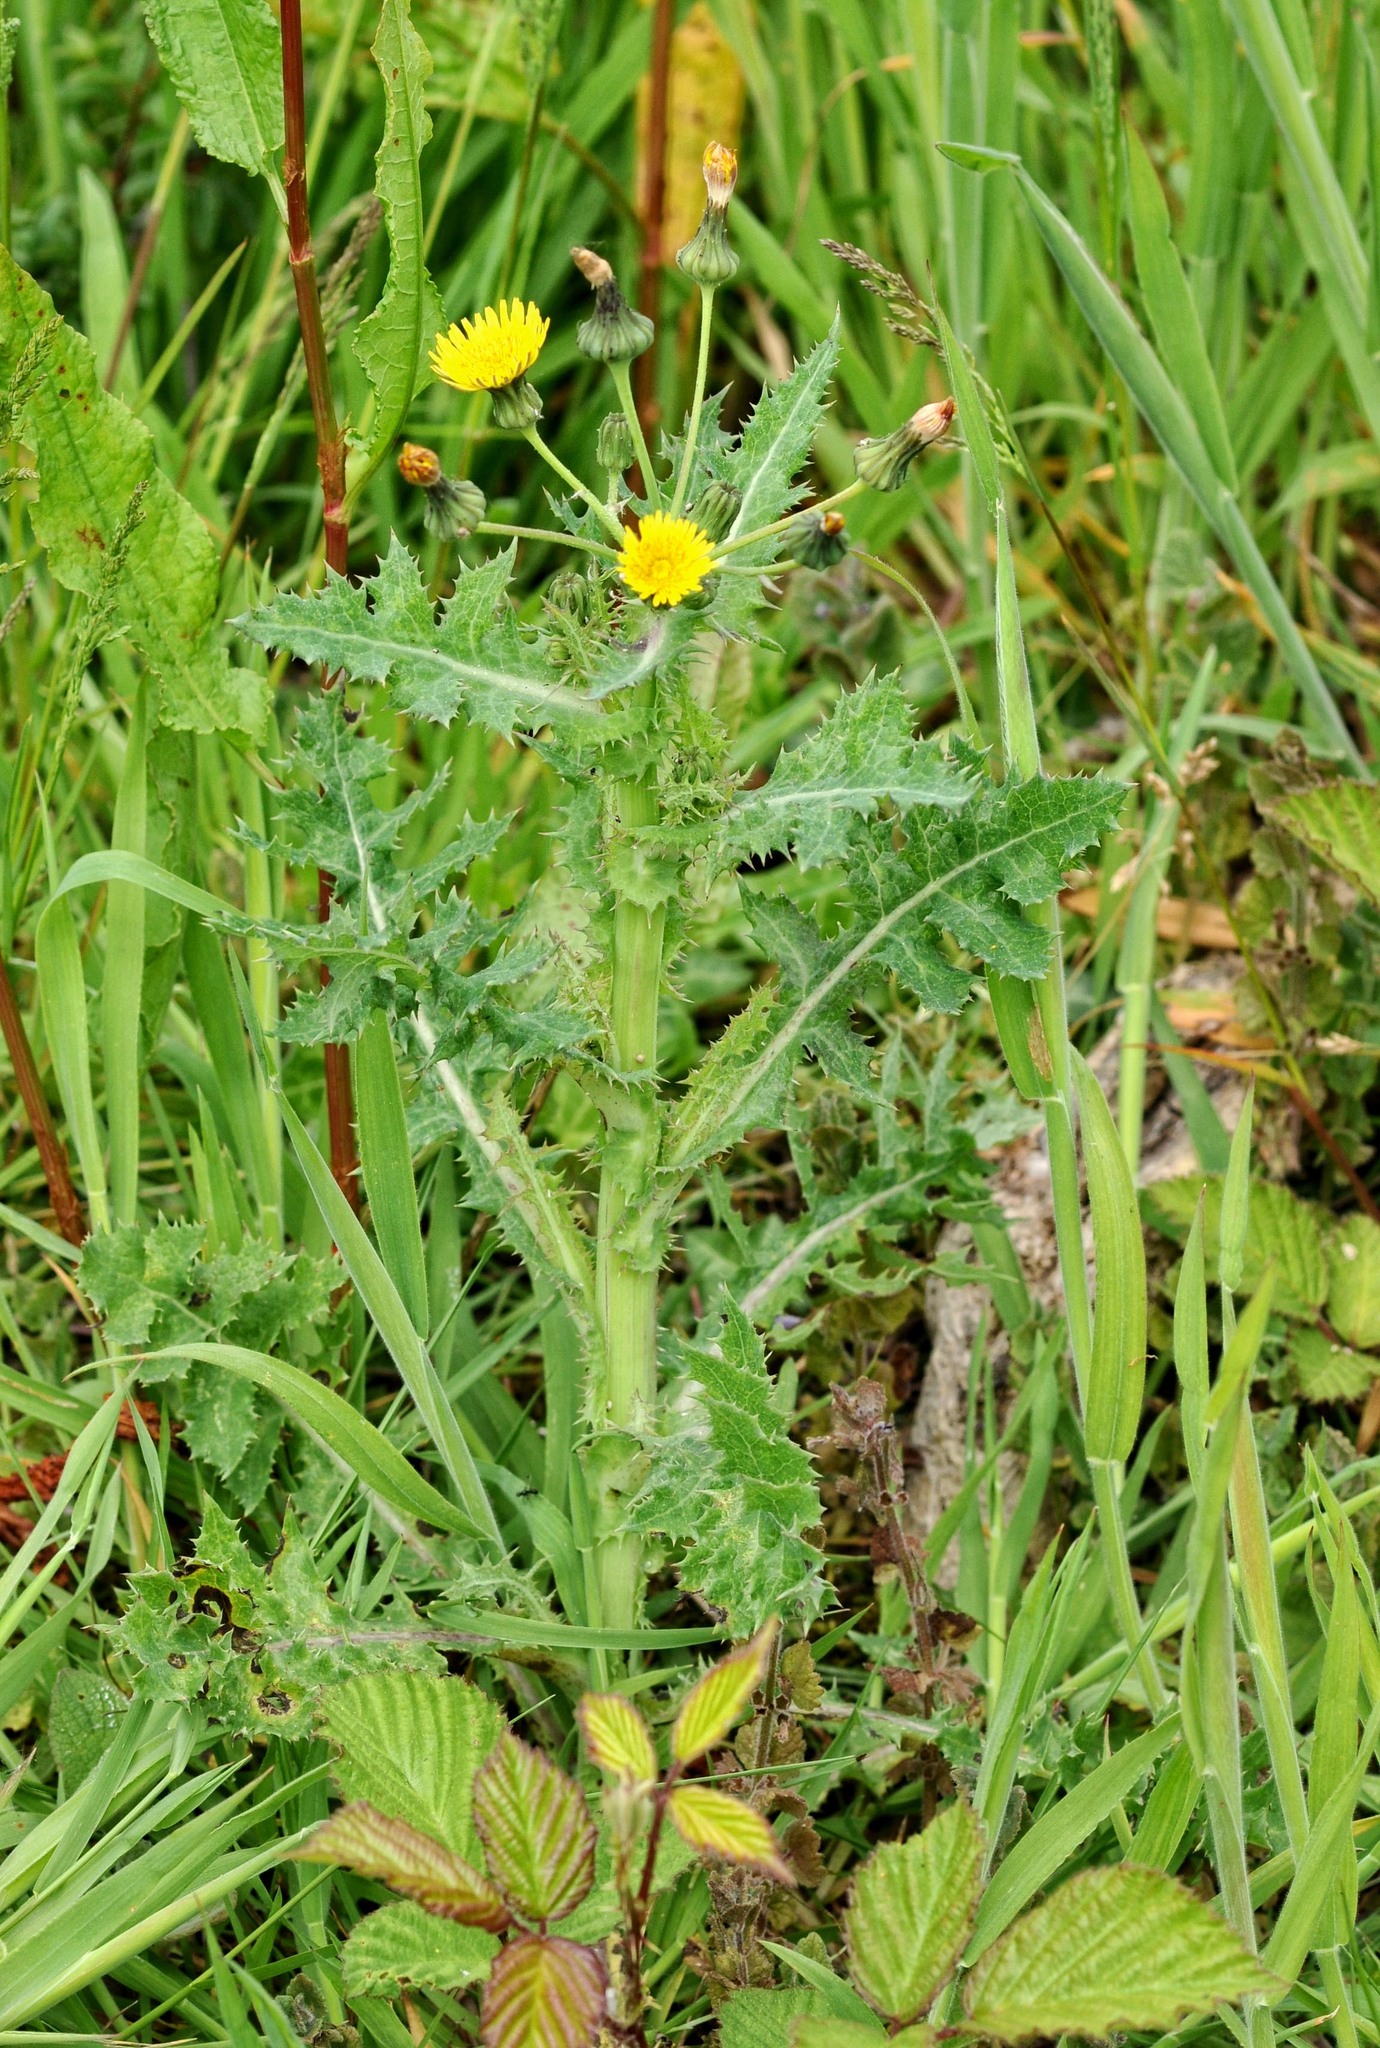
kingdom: Plantae
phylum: Tracheophyta
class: Magnoliopsida
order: Asterales
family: Asteraceae
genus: Sonchus
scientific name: Sonchus asper
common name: Prickly sow-thistle
